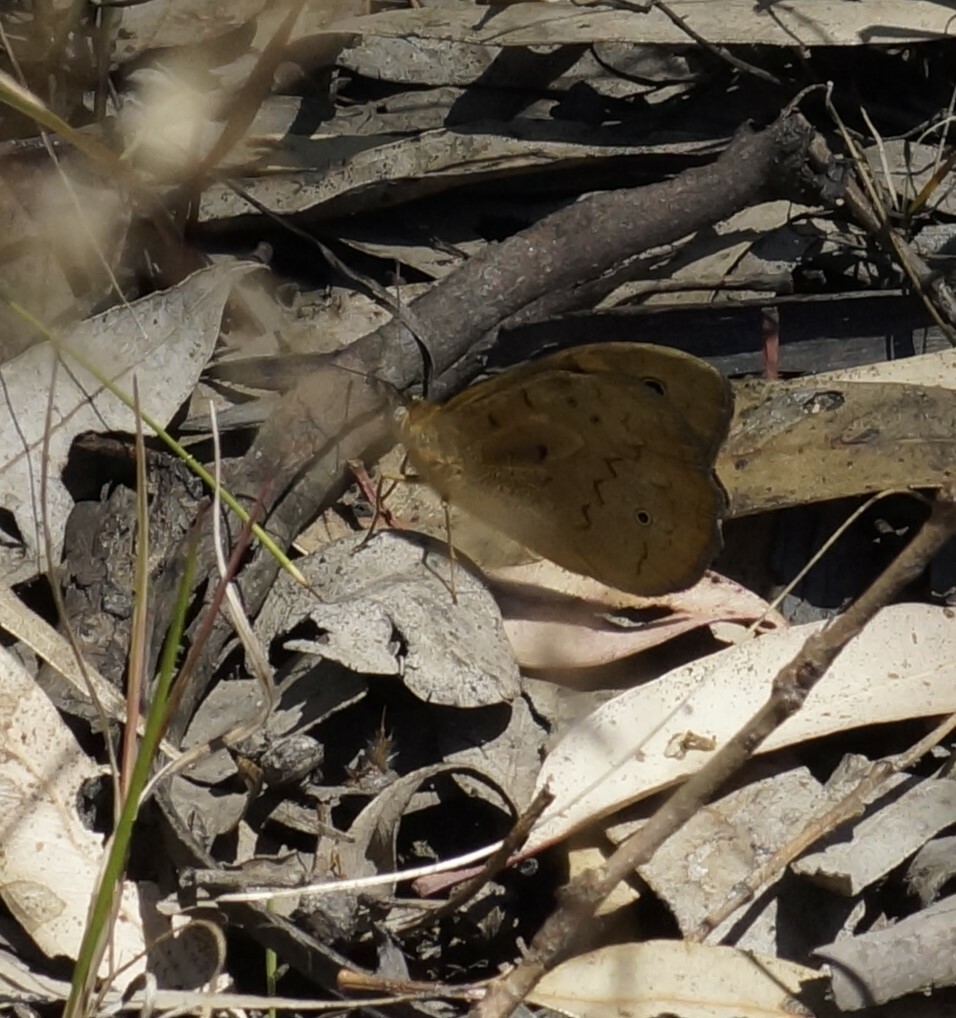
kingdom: Animalia
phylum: Arthropoda
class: Insecta
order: Lepidoptera
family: Nymphalidae
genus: Heteronympha
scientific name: Heteronympha merope
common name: Common brown
